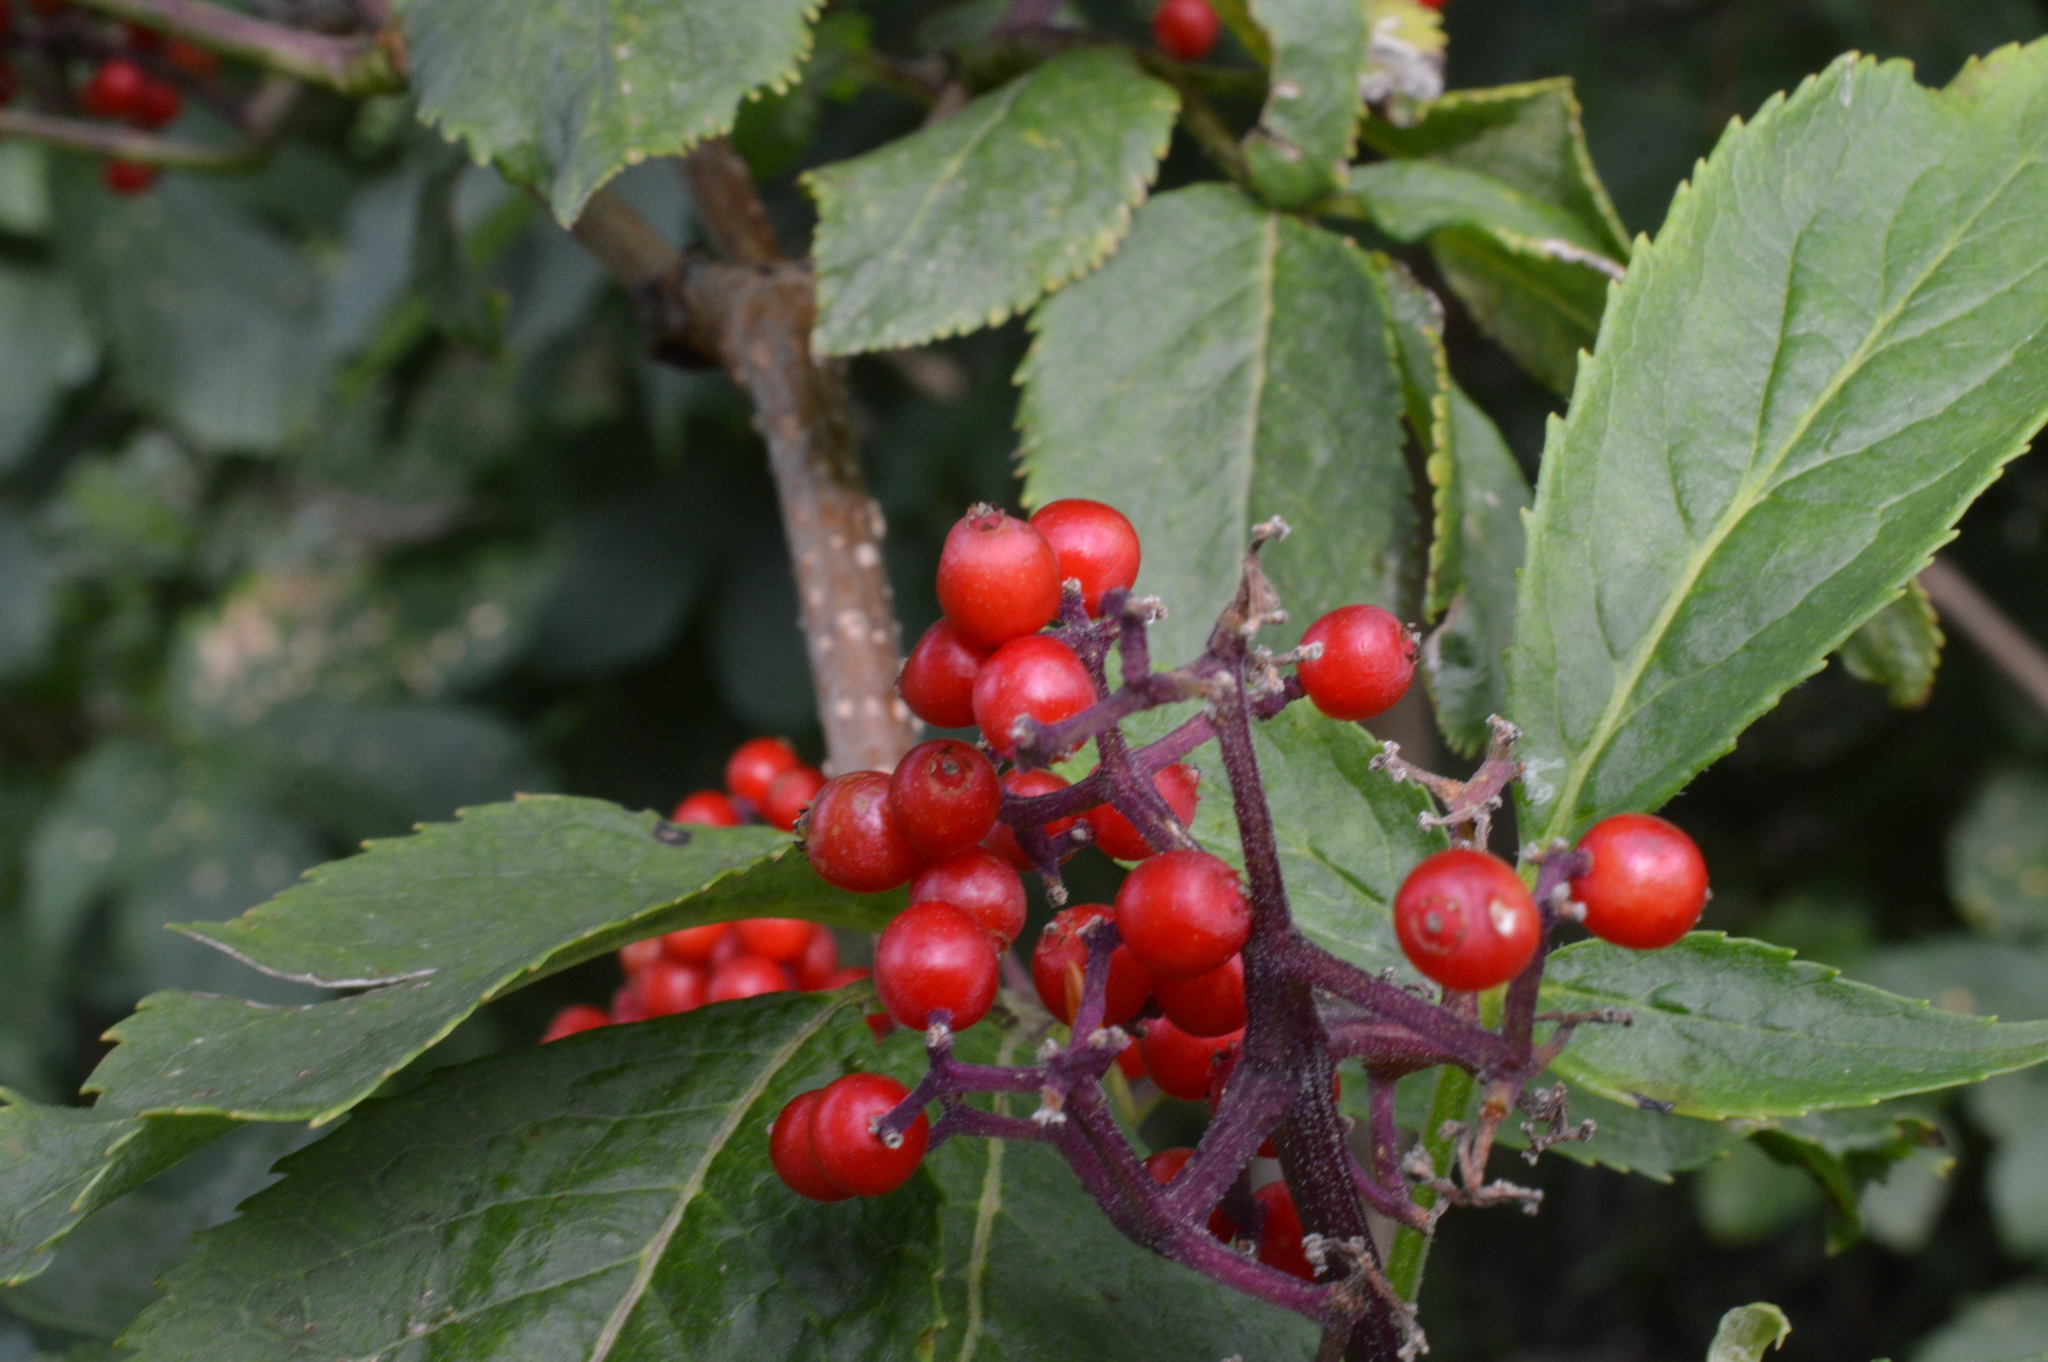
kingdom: Plantae
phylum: Tracheophyta
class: Magnoliopsida
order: Dipsacales
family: Viburnaceae
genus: Sambucus
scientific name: Sambucus racemosa
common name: Red-berried elder
